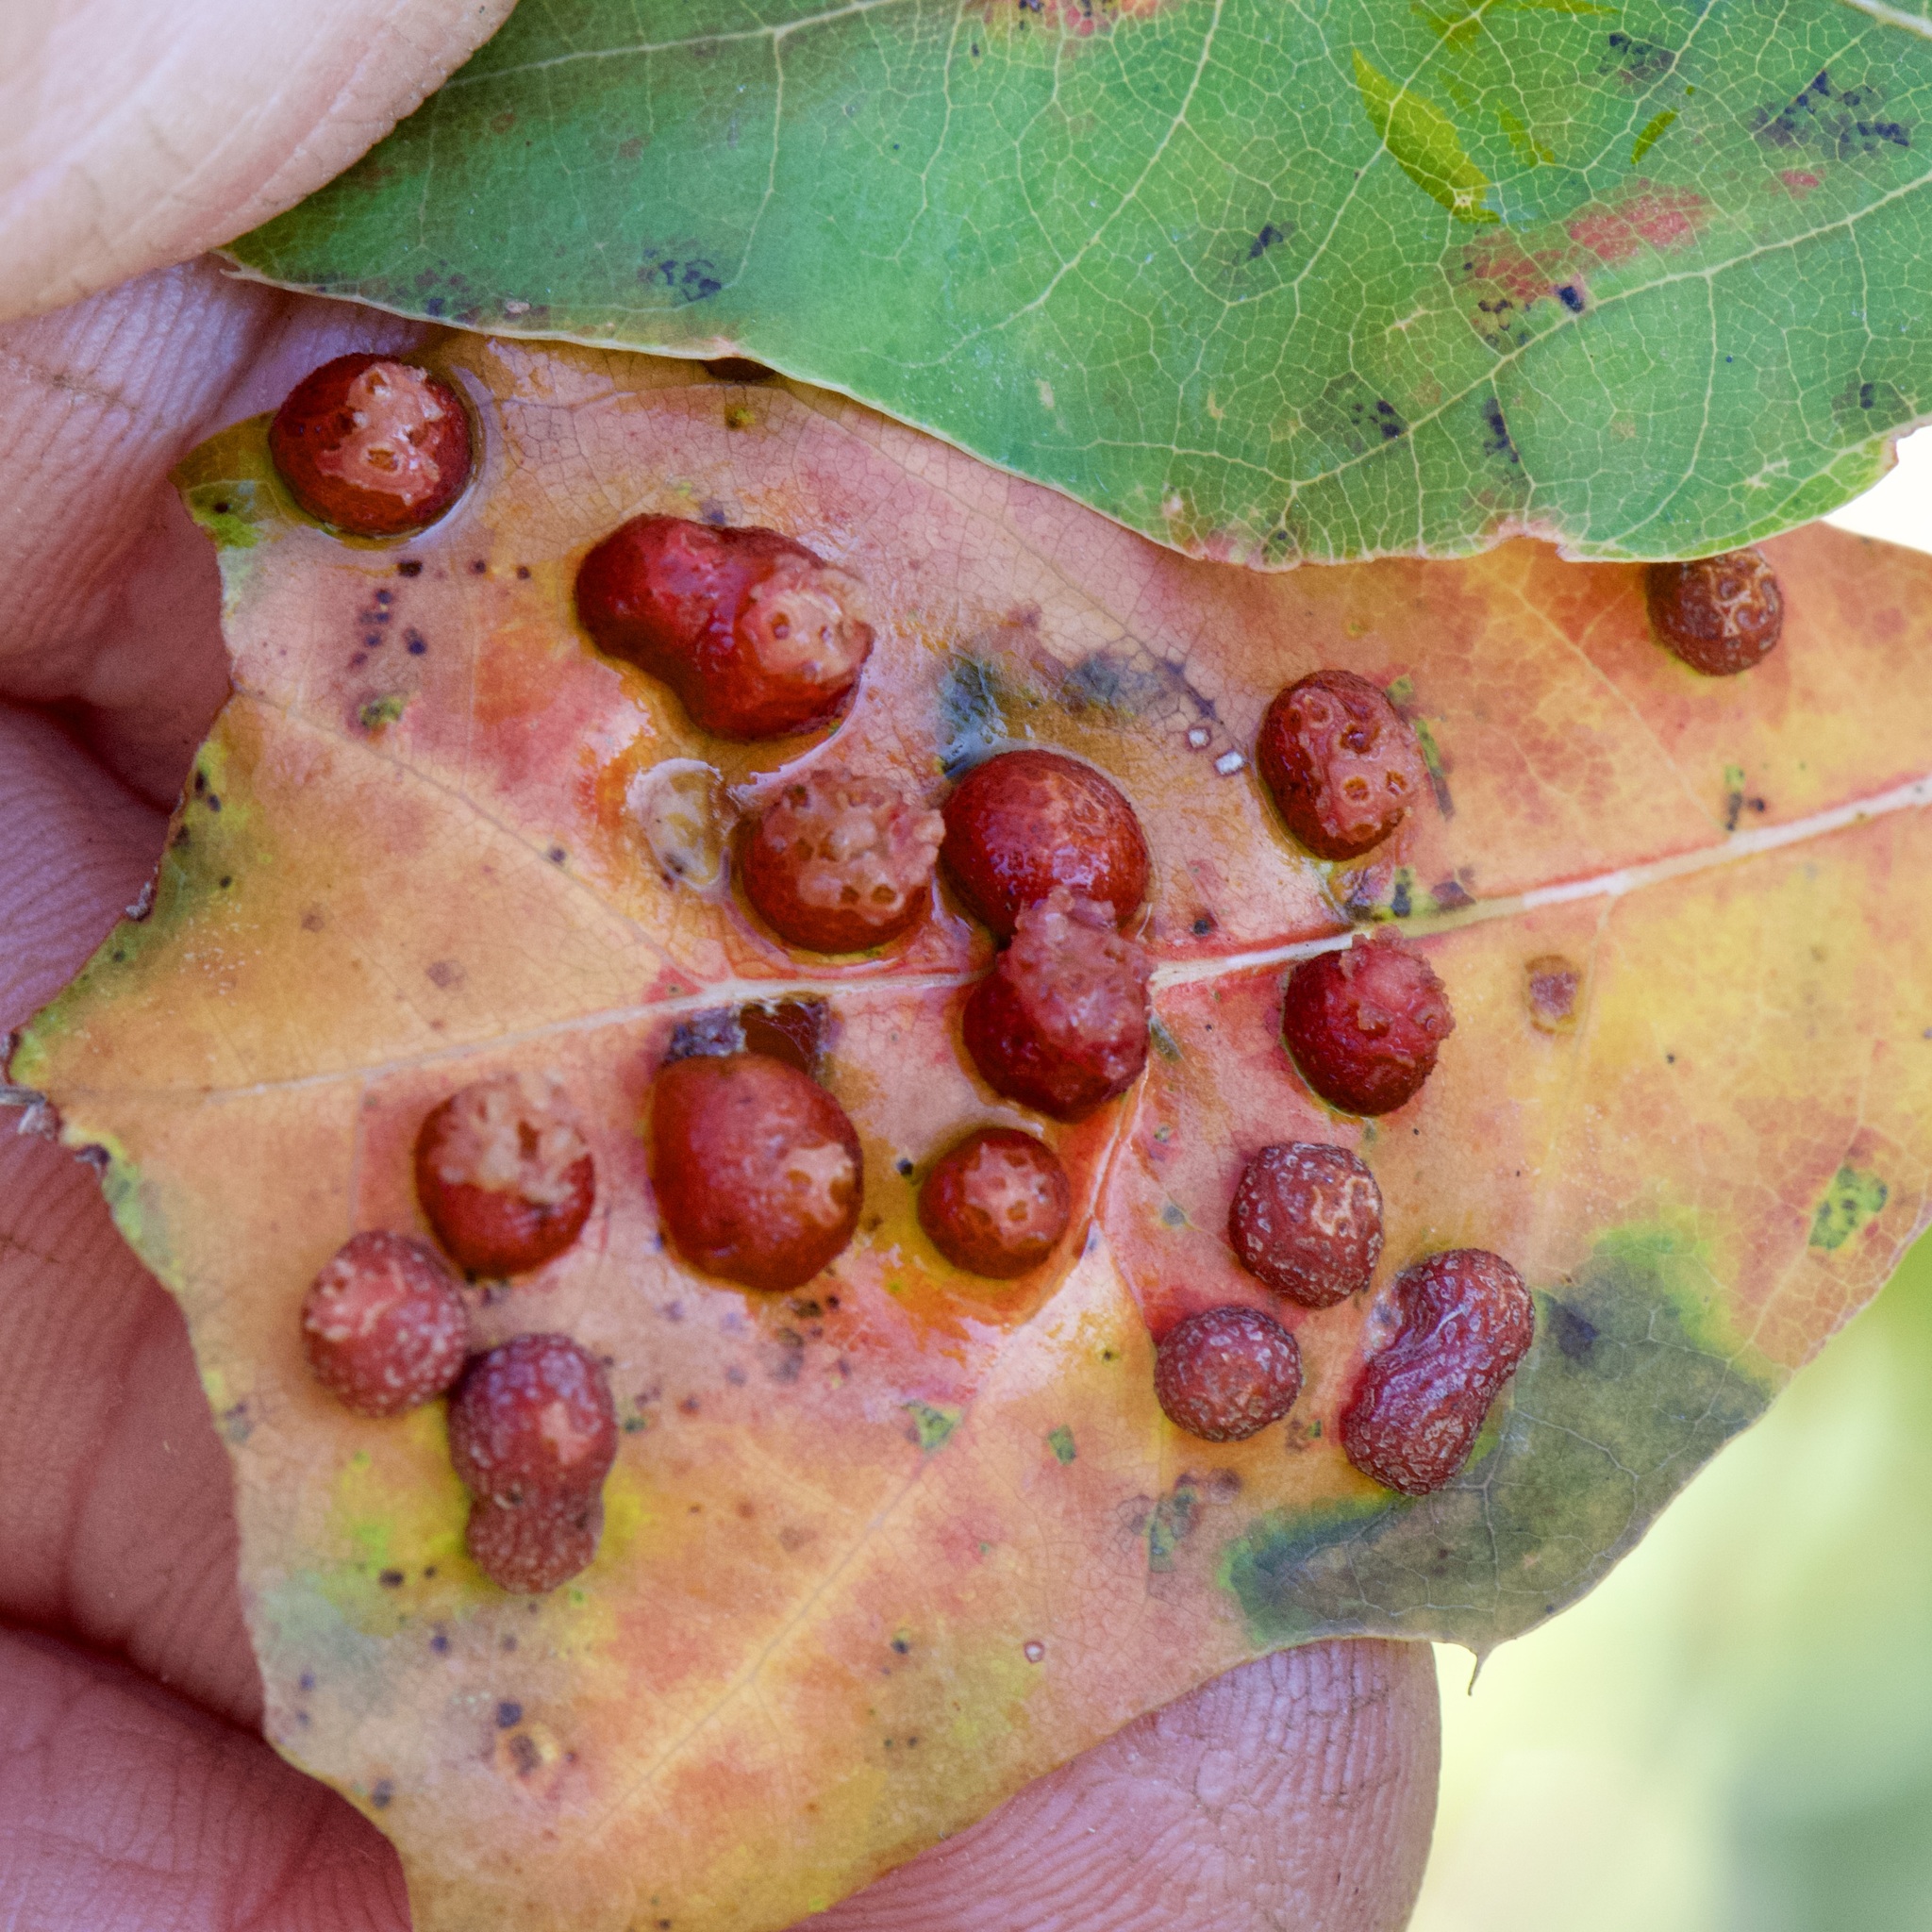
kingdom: Animalia
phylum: Arthropoda
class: Insecta
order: Diptera
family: Cecidomyiidae
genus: Polystepha
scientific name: Polystepha pilulae
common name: Oak leaf gall midge
